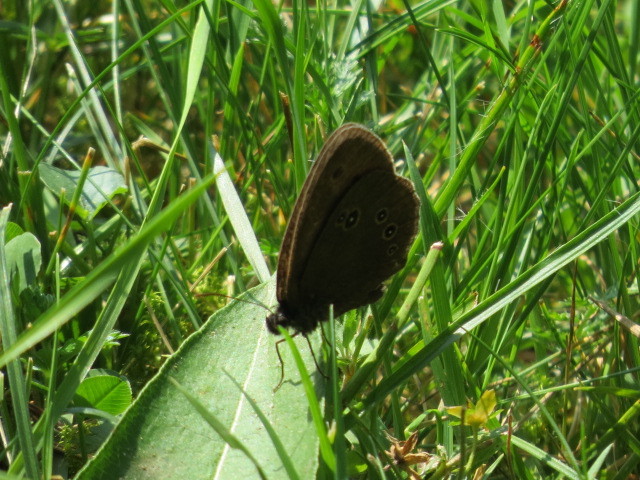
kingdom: Animalia
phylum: Arthropoda
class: Insecta
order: Lepidoptera
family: Nymphalidae
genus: Aphantopus
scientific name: Aphantopus hyperantus
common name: Ringlet
